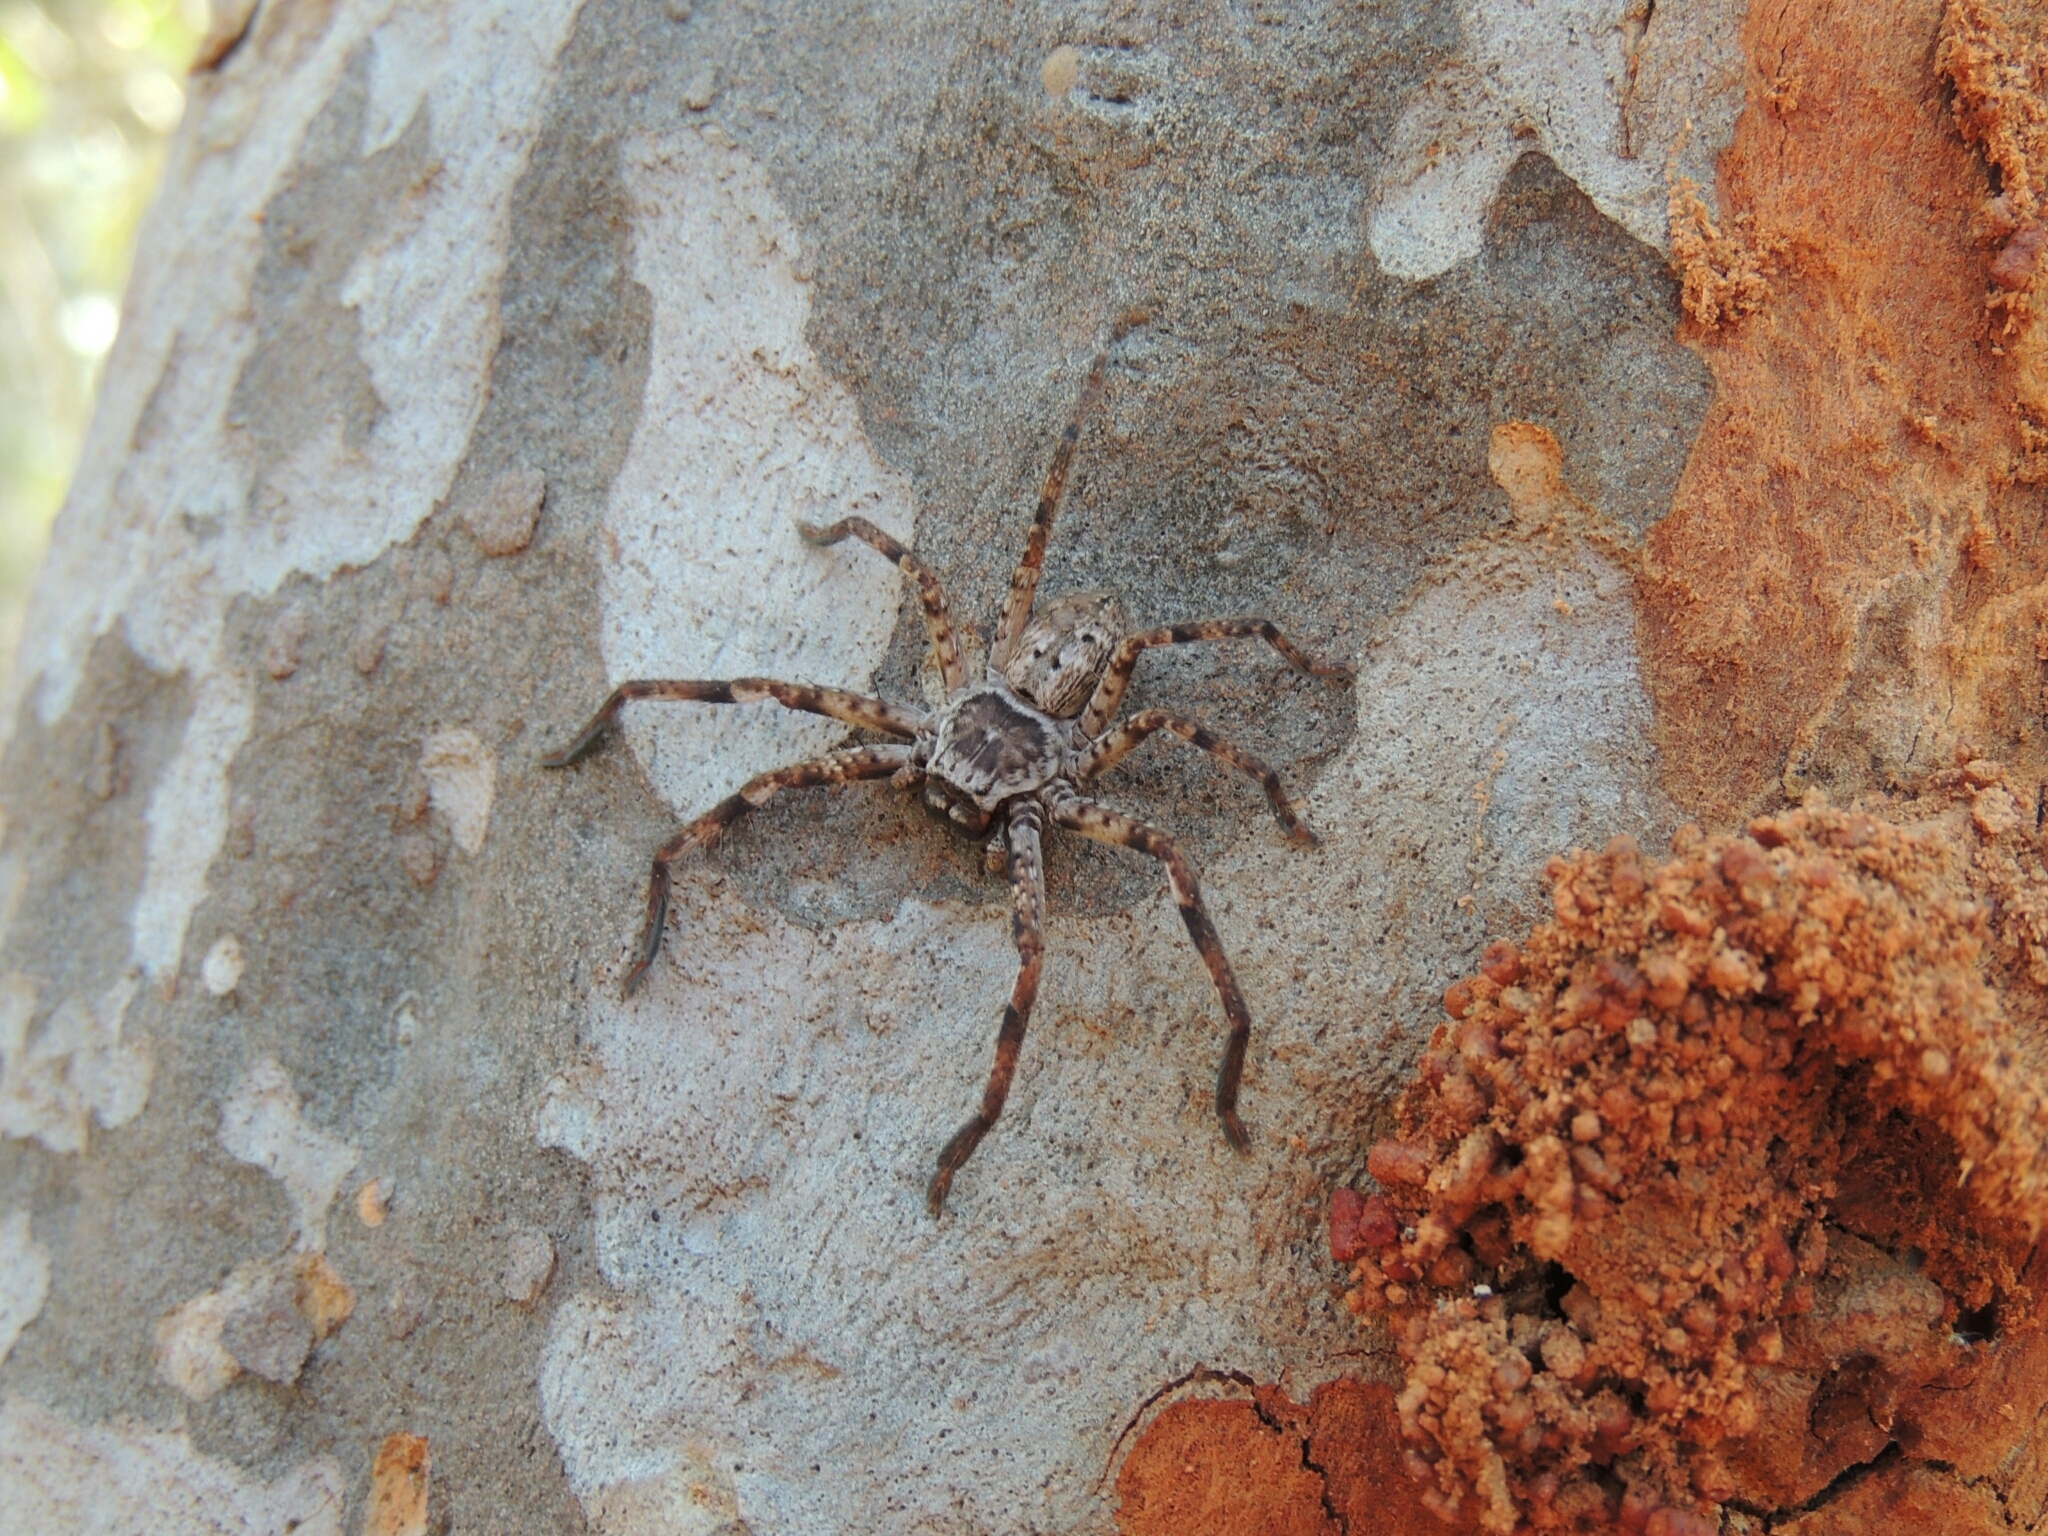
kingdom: Animalia
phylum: Arthropoda
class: Arachnida
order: Araneae
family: Sparassidae
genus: Isopeda
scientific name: Isopeda vasta
